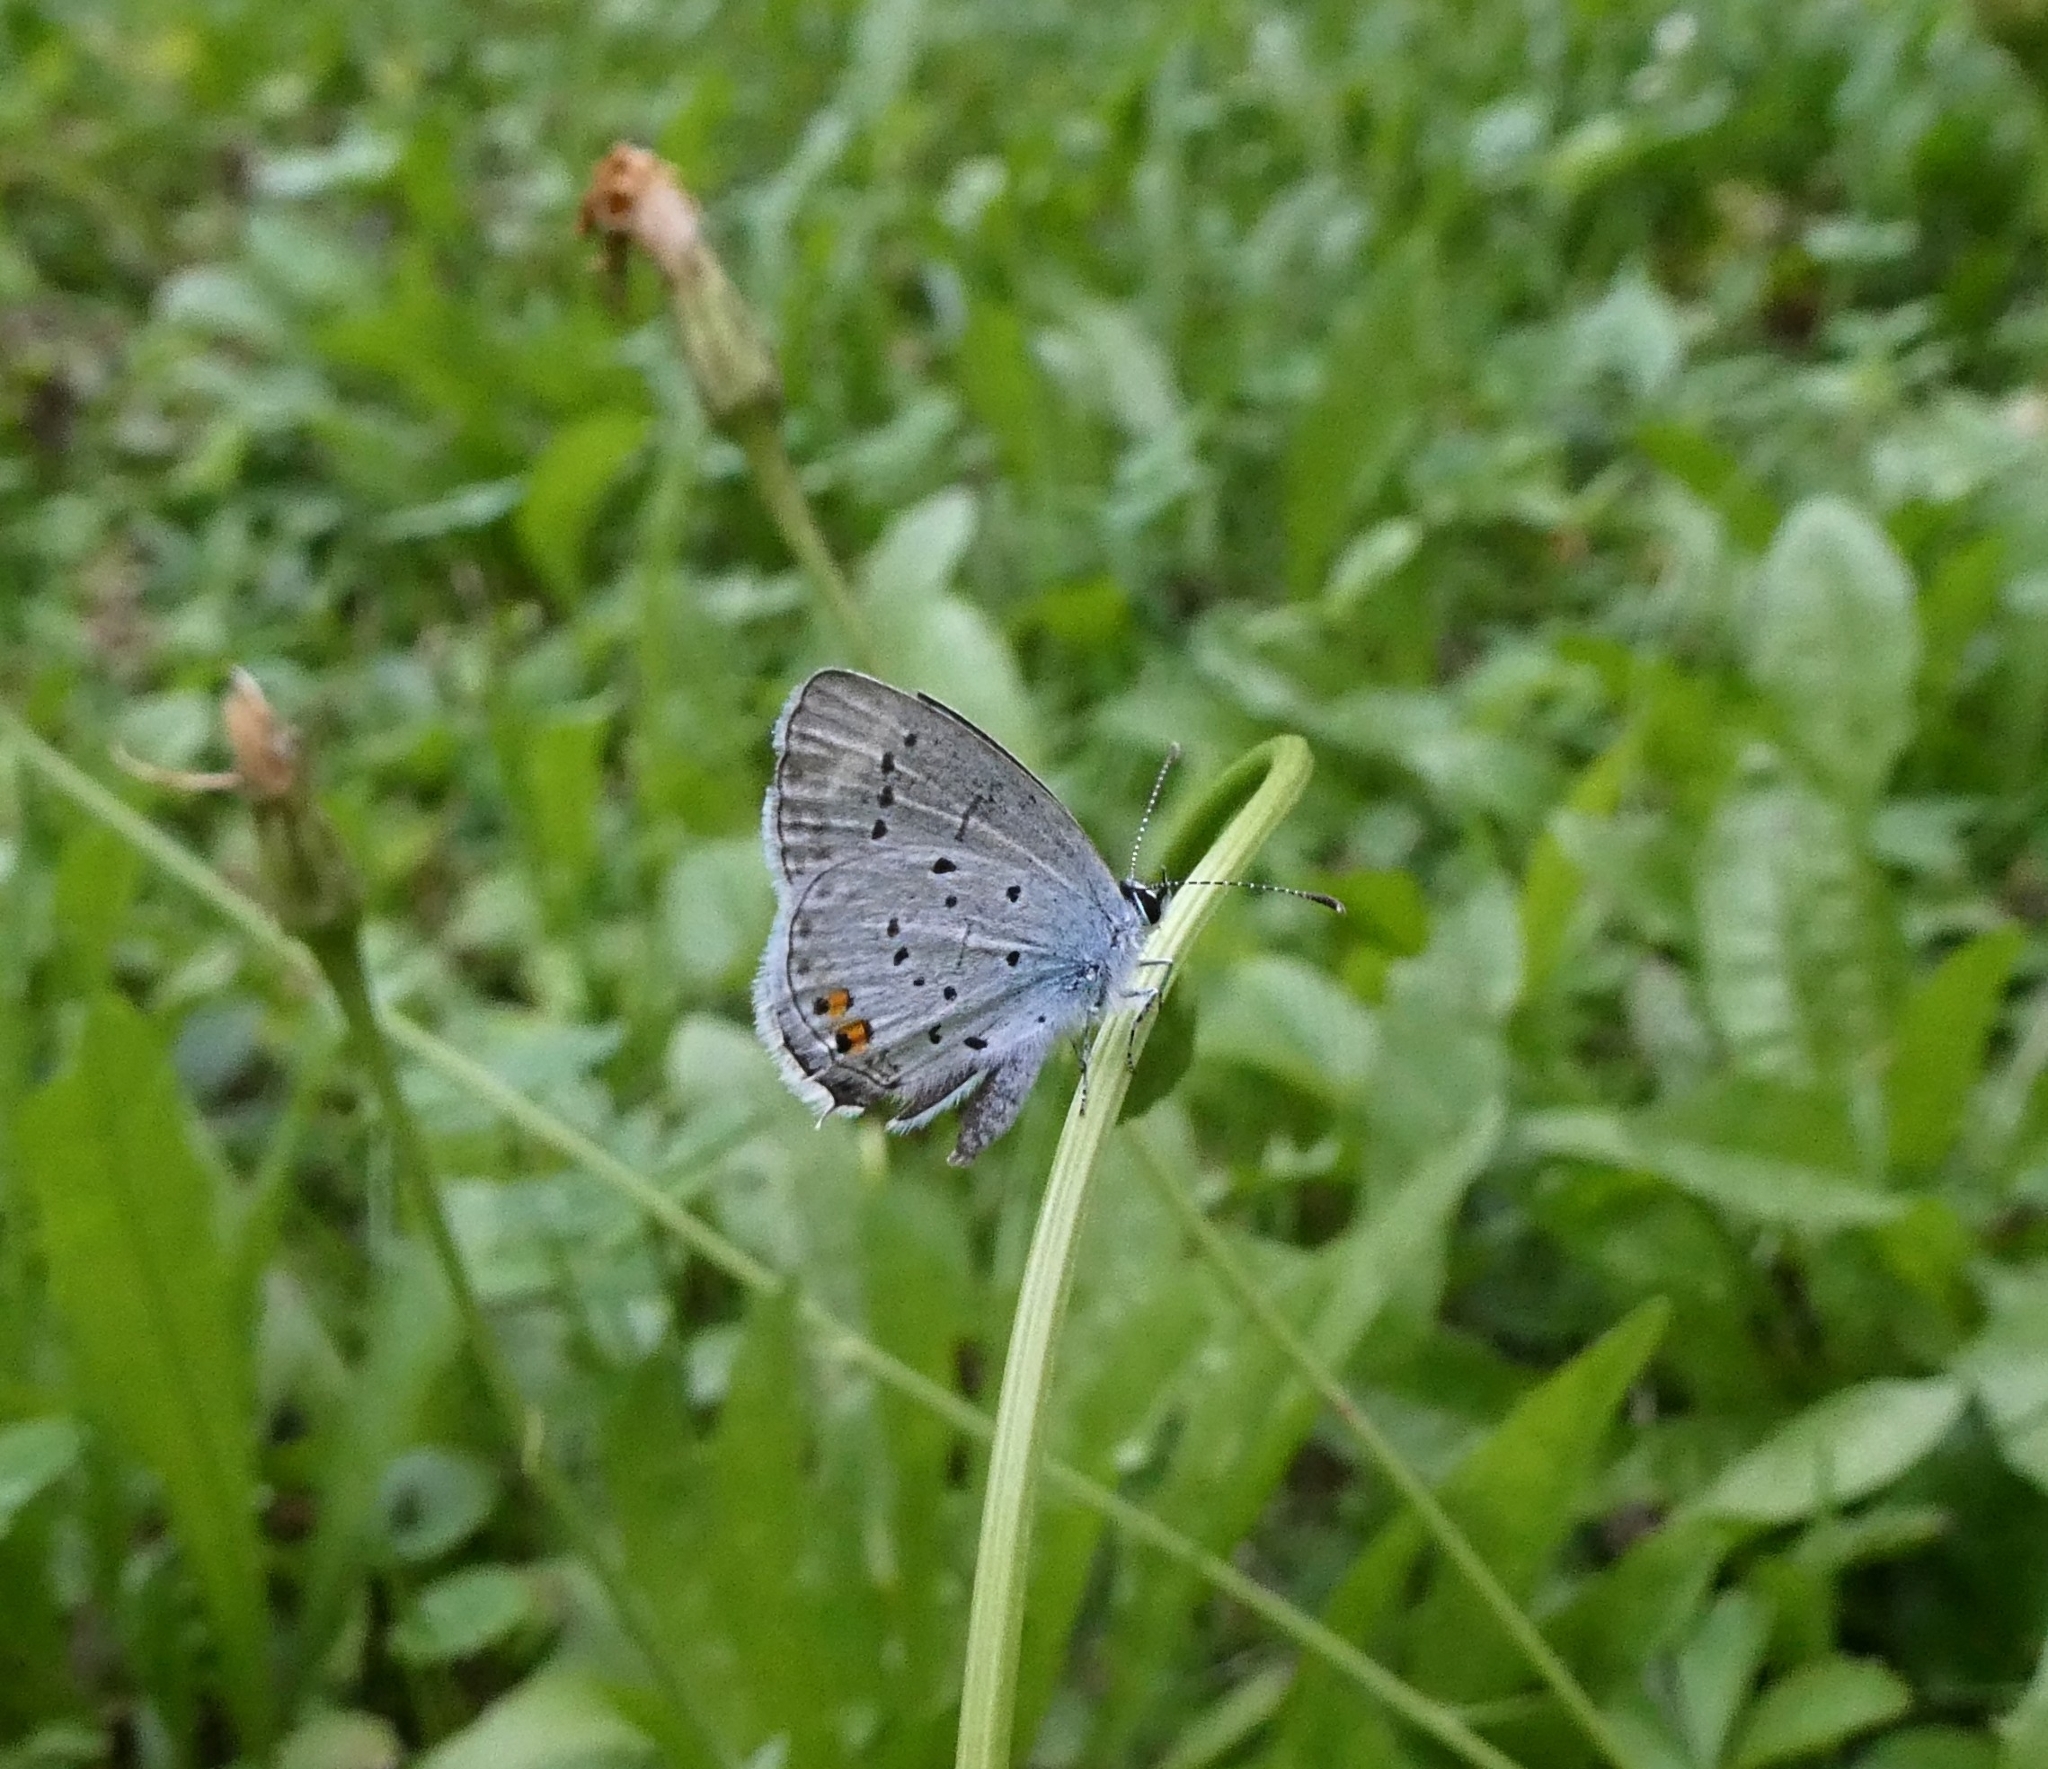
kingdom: Animalia
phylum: Arthropoda
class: Insecta
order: Lepidoptera
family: Lycaenidae
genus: Elkalyce
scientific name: Elkalyce argiades
